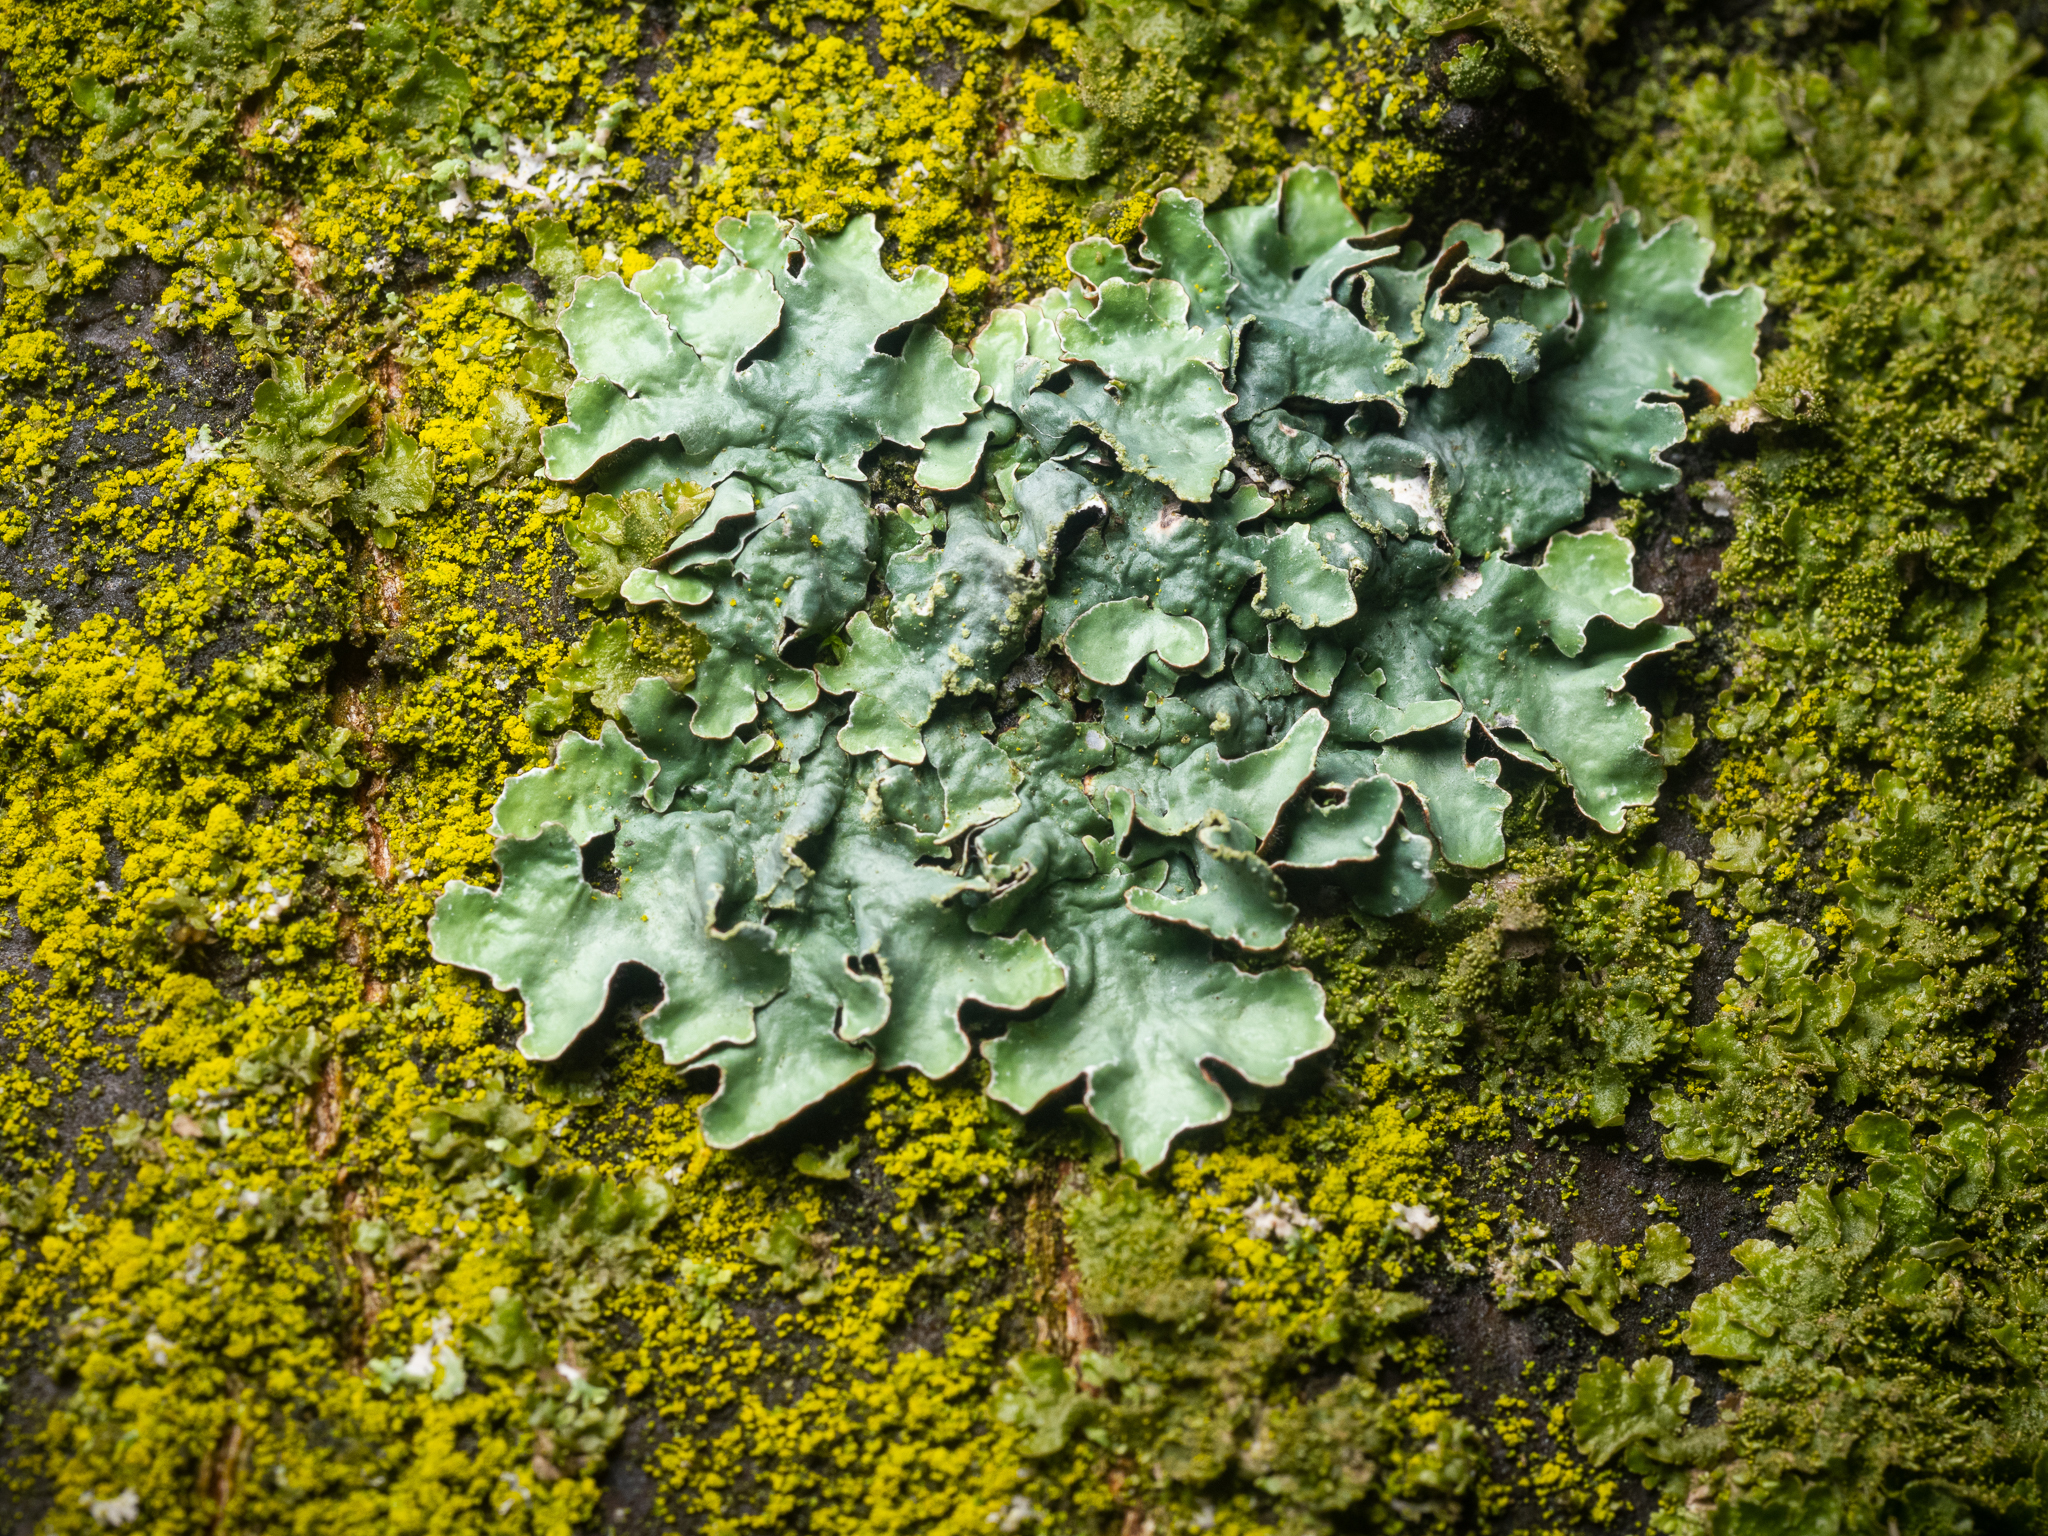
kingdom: Fungi
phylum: Ascomycota
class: Lecanoromycetes
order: Lecanorales
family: Parmeliaceae
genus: Parmelia
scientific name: Parmelia sulcata
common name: Netted shield lichen
